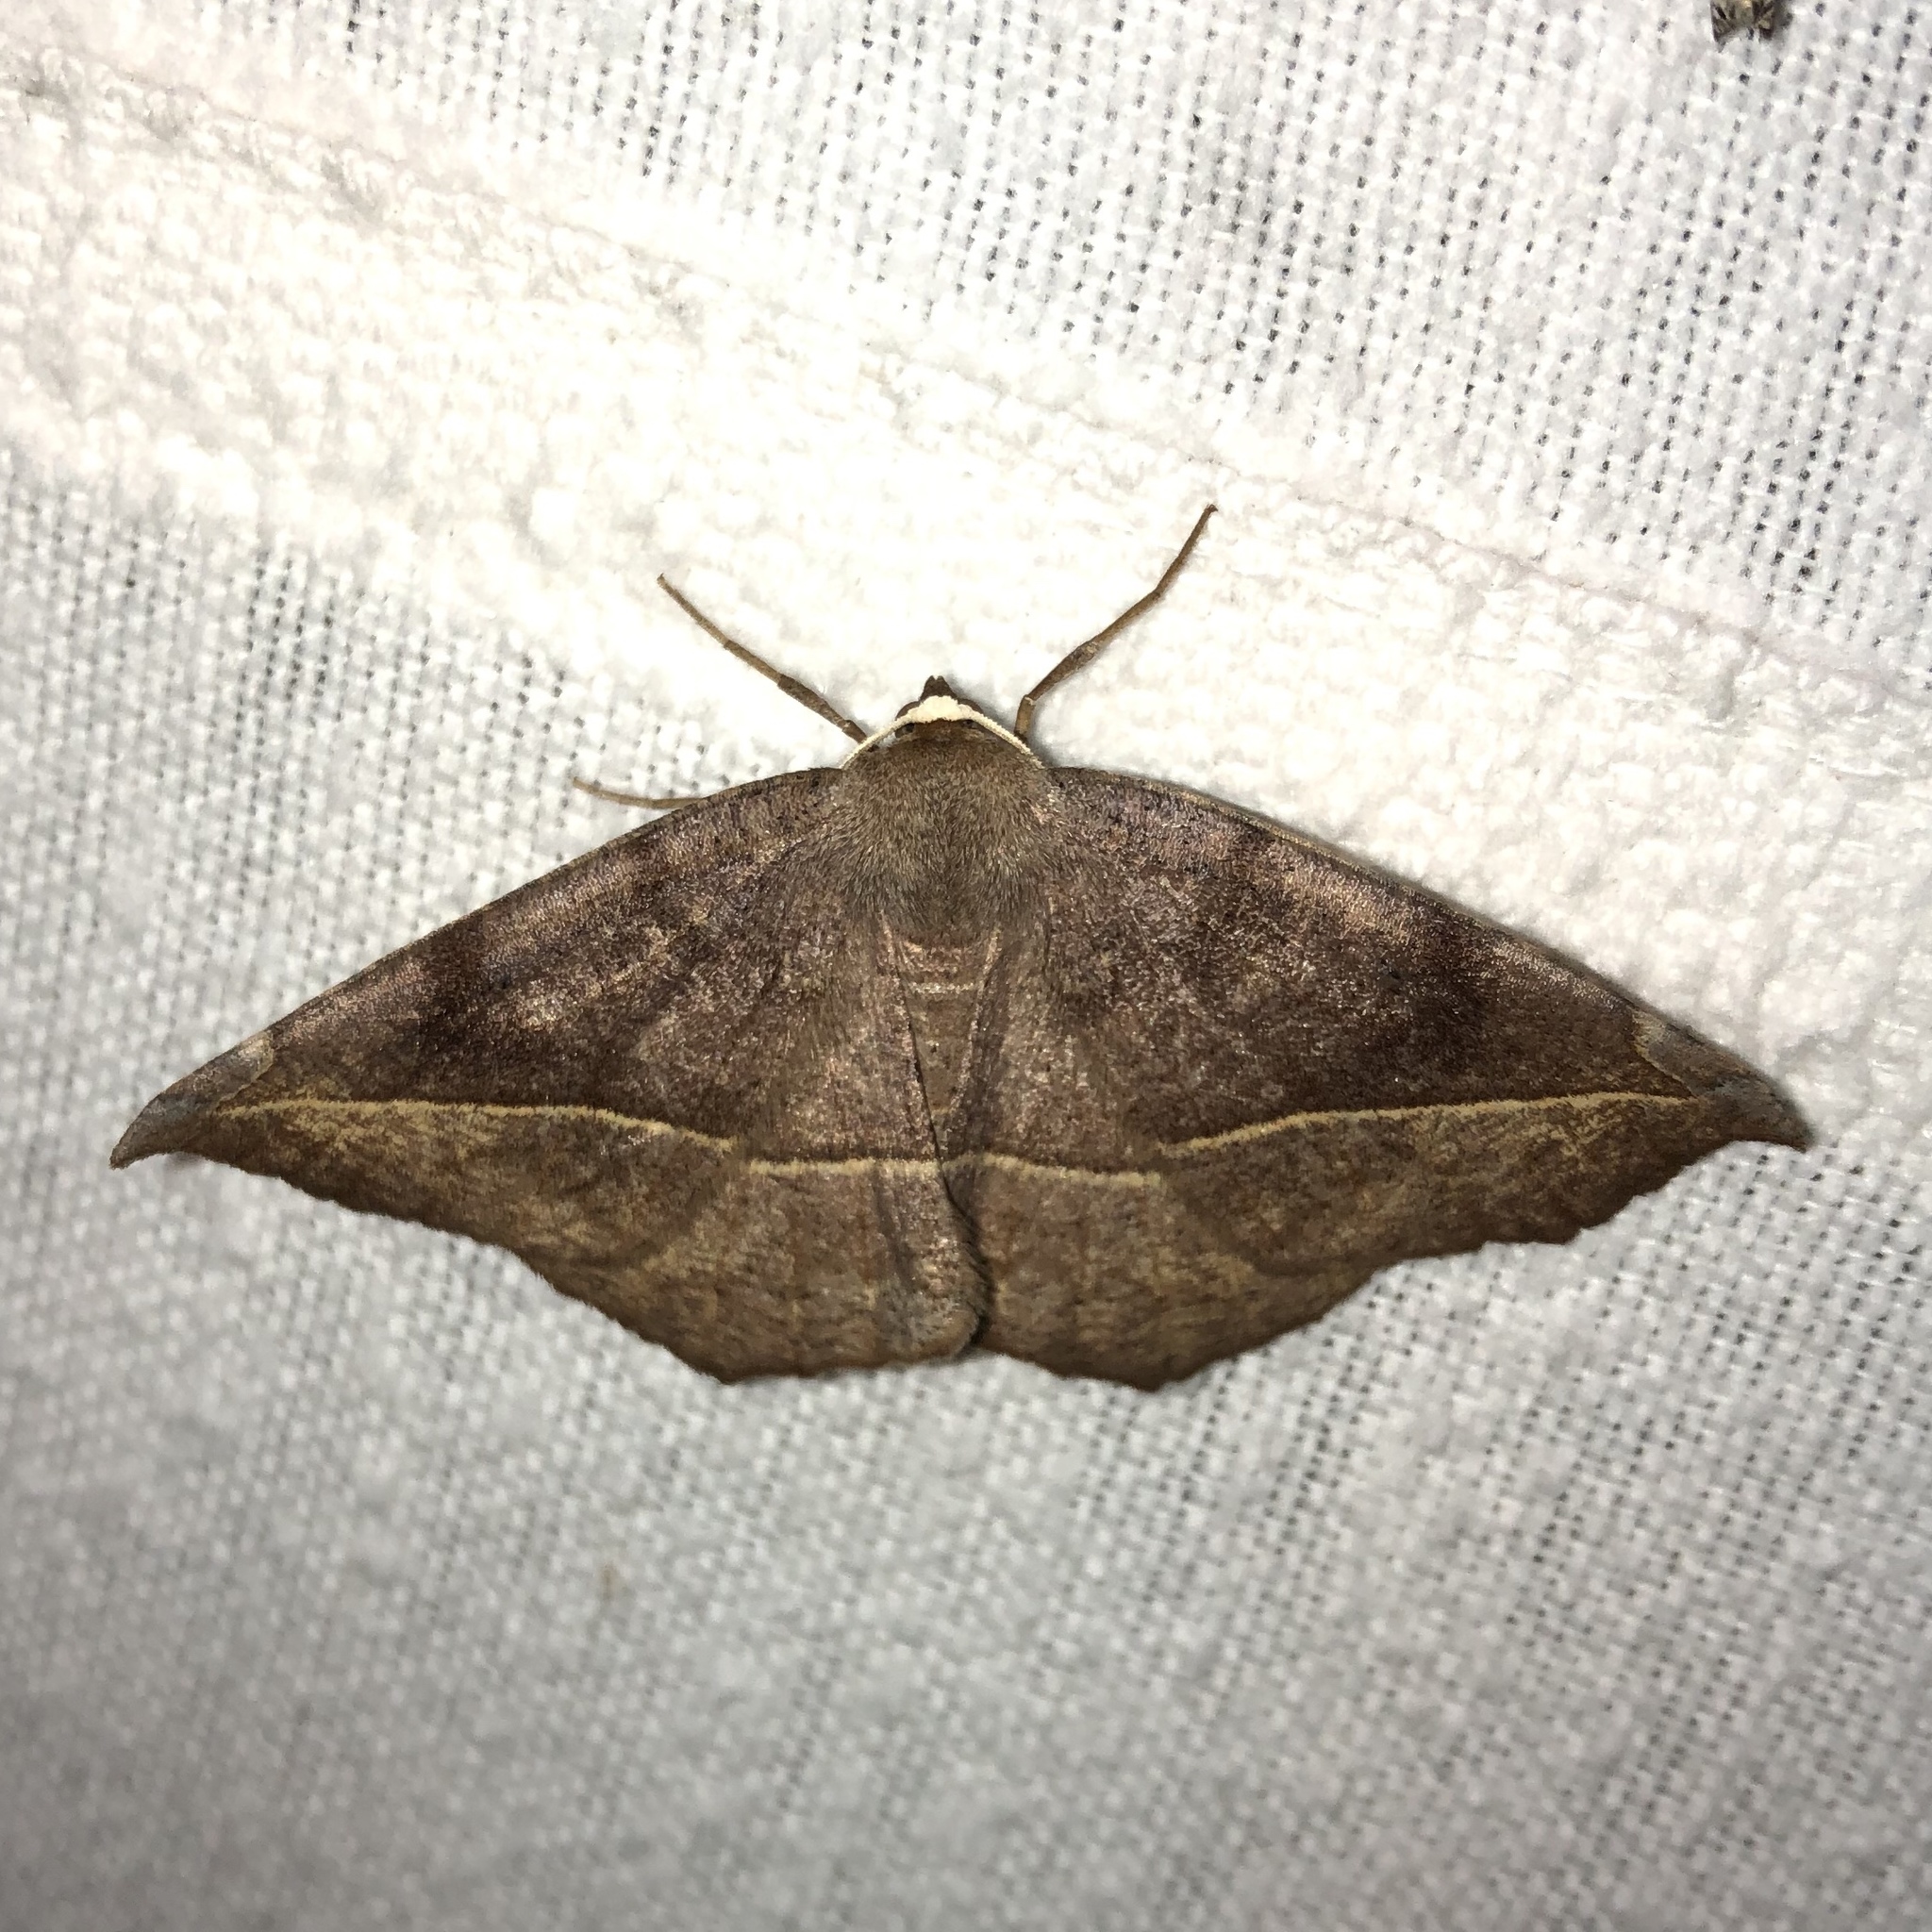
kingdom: Animalia
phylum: Arthropoda
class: Insecta
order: Lepidoptera
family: Geometridae
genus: Eutrapela
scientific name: Eutrapela clemataria
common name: Curved-toothed geometer
